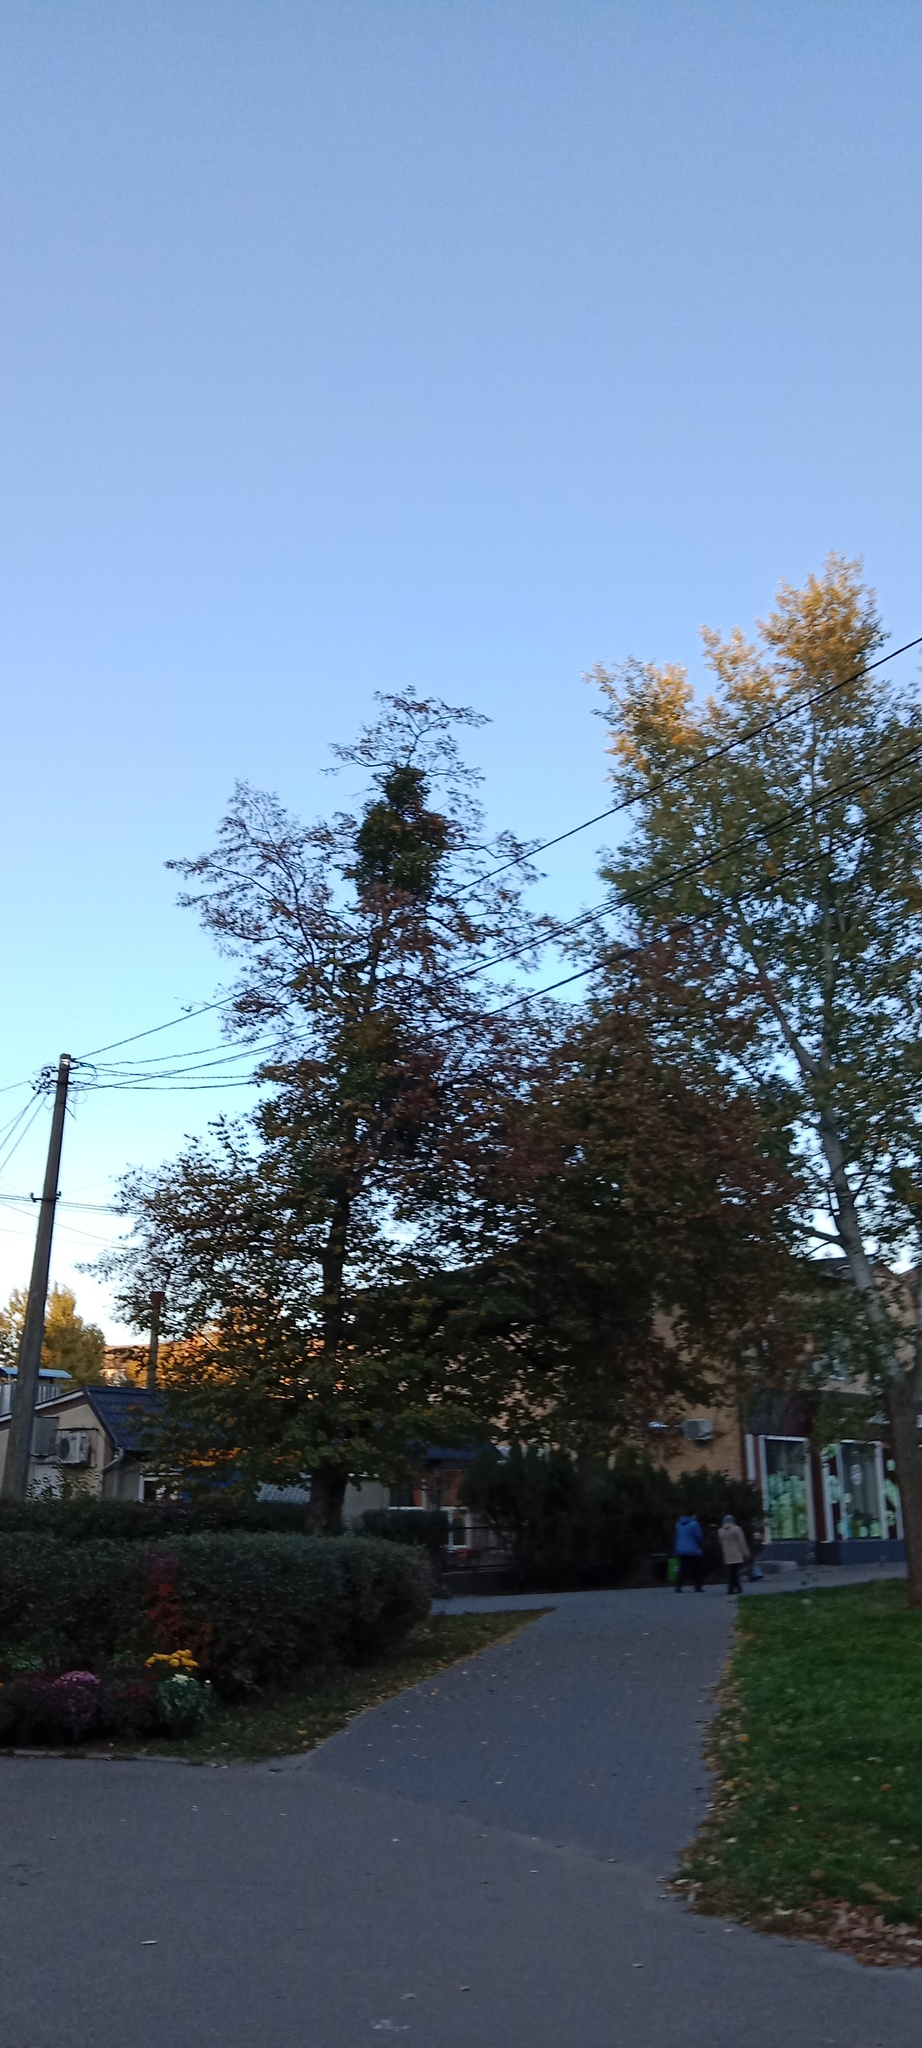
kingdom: Plantae
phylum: Tracheophyta
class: Magnoliopsida
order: Santalales
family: Viscaceae
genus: Viscum
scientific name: Viscum album
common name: Mistletoe
